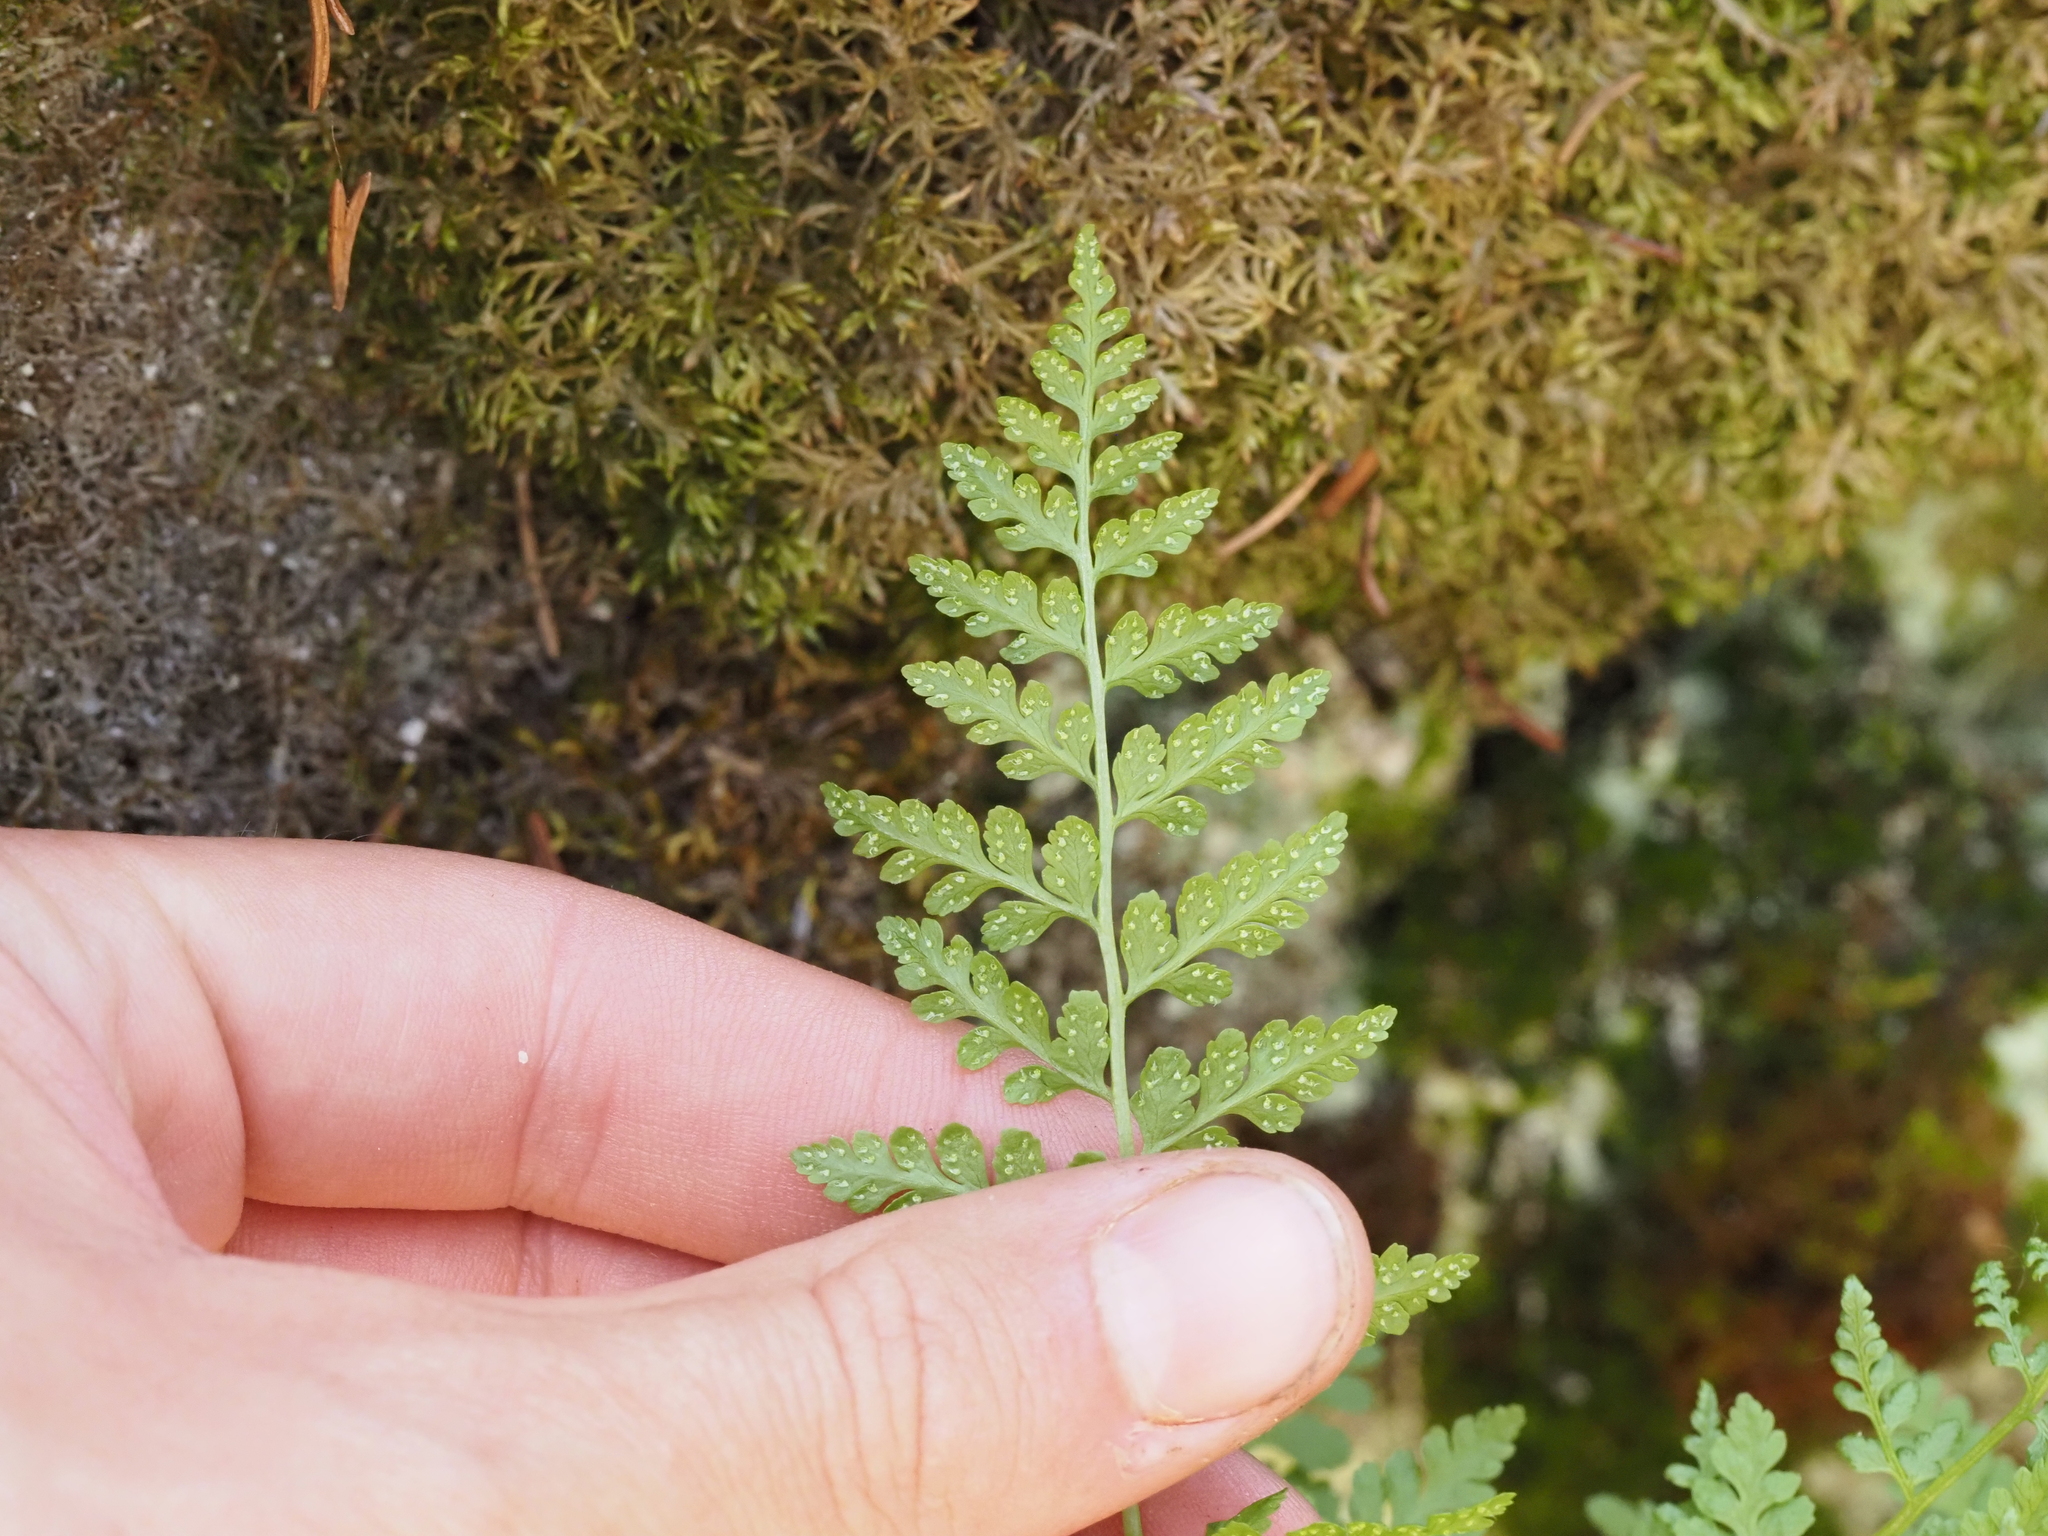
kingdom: Plantae
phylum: Tracheophyta
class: Polypodiopsida
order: Polypodiales
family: Cystopteridaceae
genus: Cystopteris
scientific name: Cystopteris fragilis
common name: Brittle bladder fern
